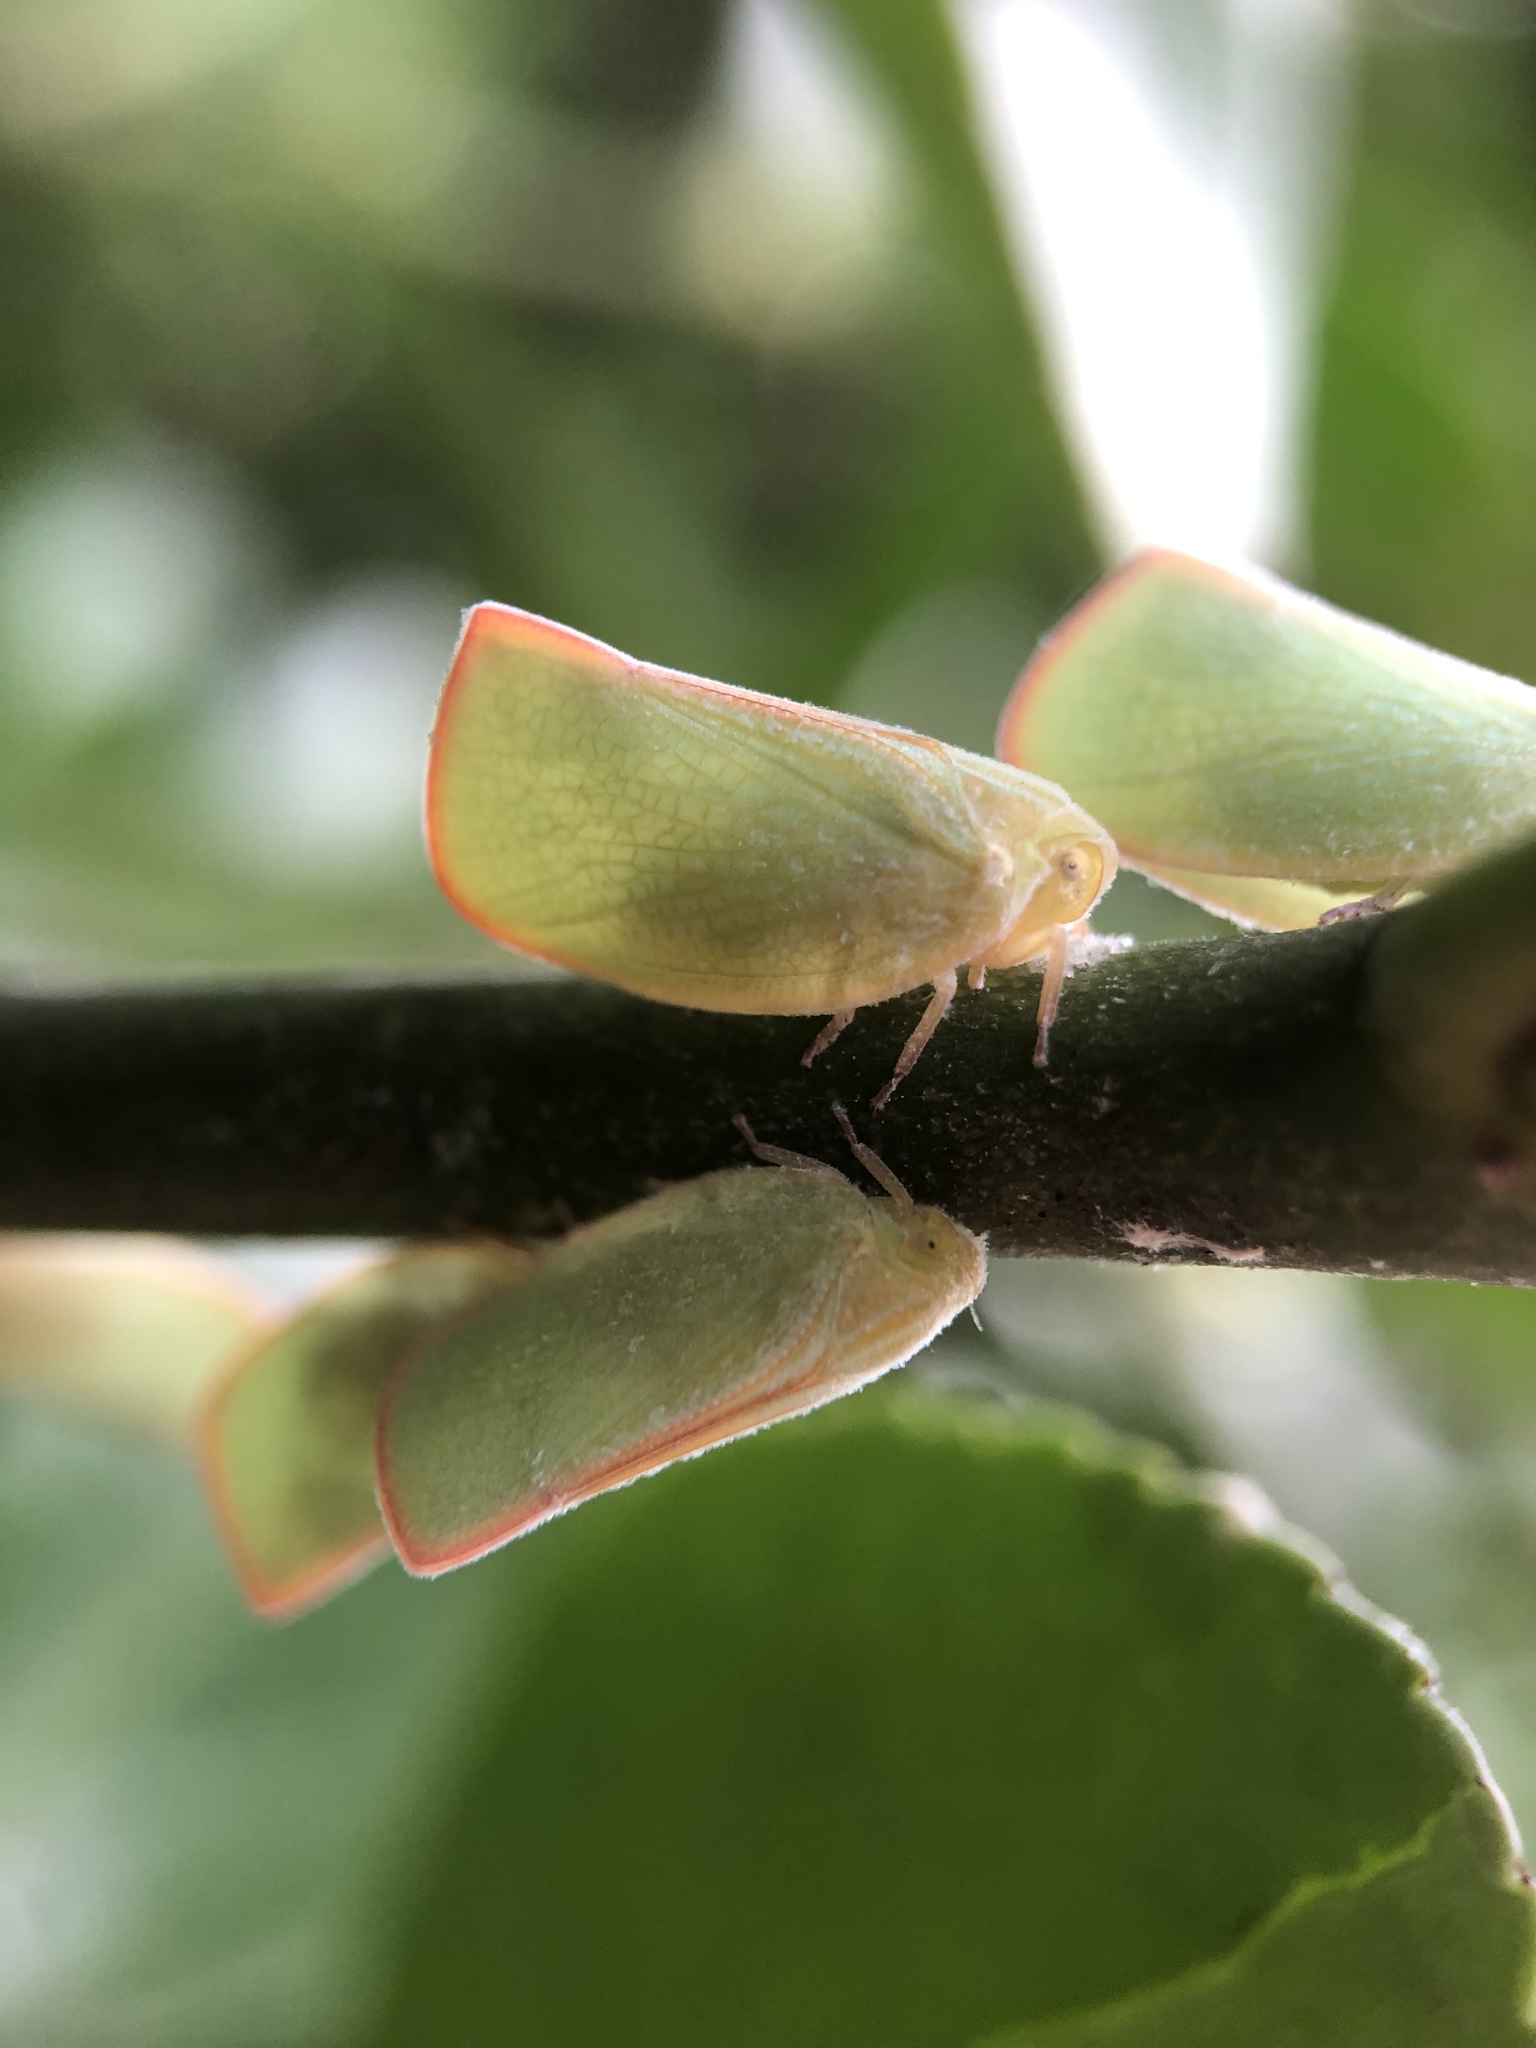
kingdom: Animalia
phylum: Arthropoda
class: Insecta
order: Hemiptera
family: Flatidae
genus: Geisha
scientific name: Geisha distinctissima
